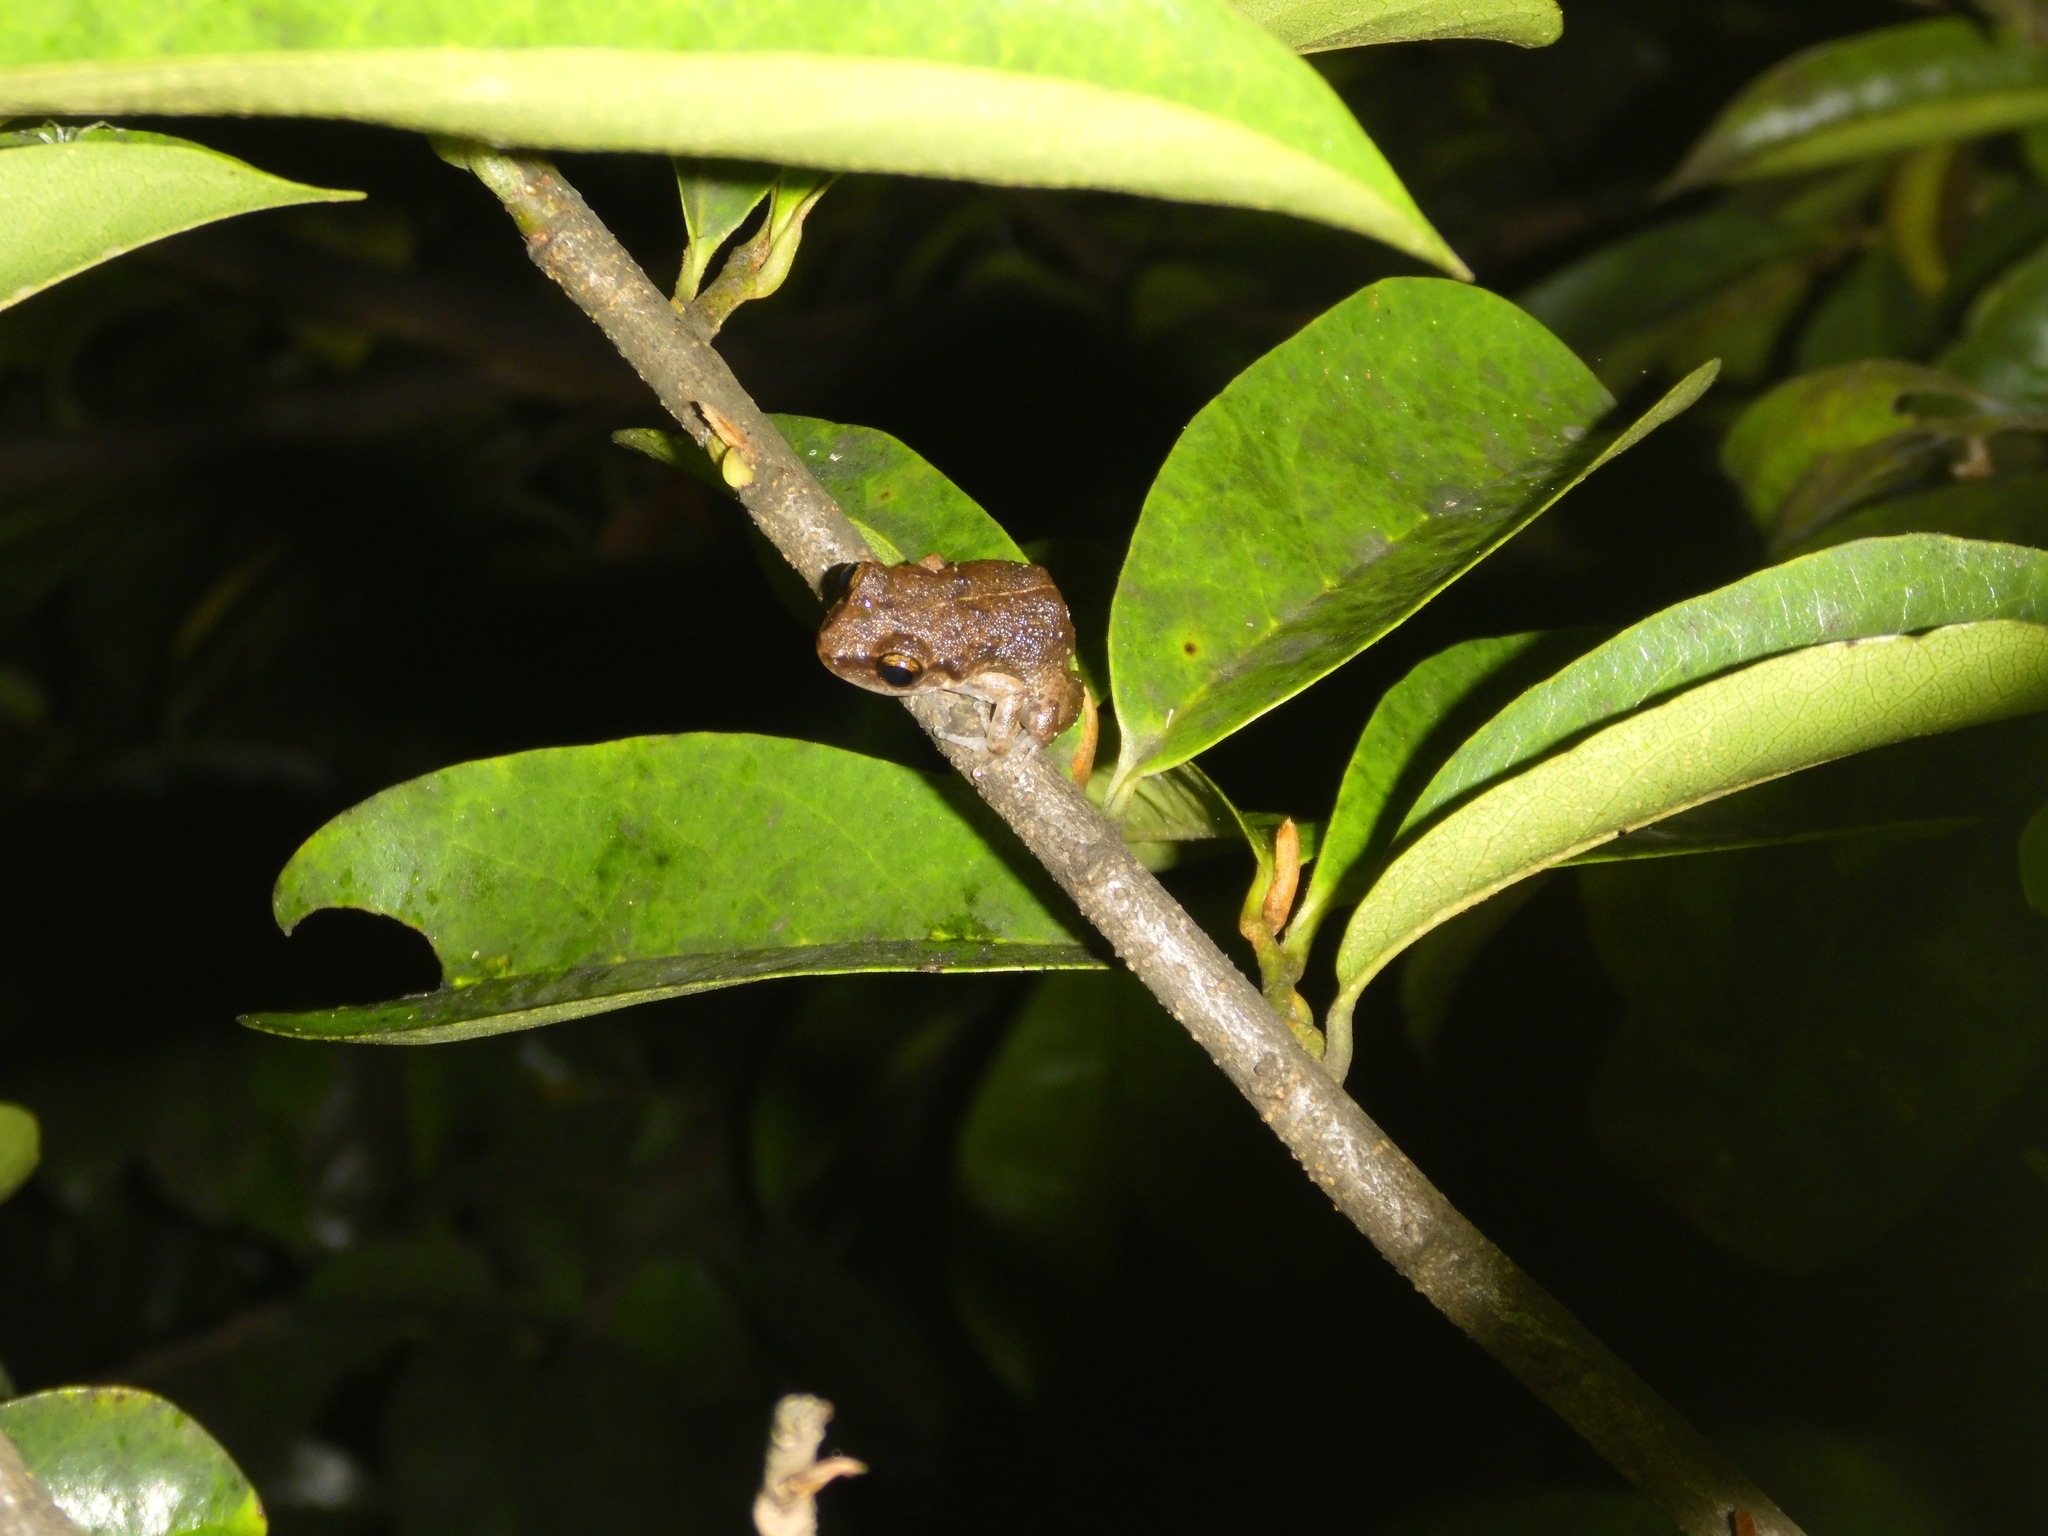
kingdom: Animalia
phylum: Chordata
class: Amphibia
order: Anura
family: Eleutherodactylidae
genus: Eleutherodactylus
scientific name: Eleutherodactylus montserratae
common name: Montserrat whistling frog
